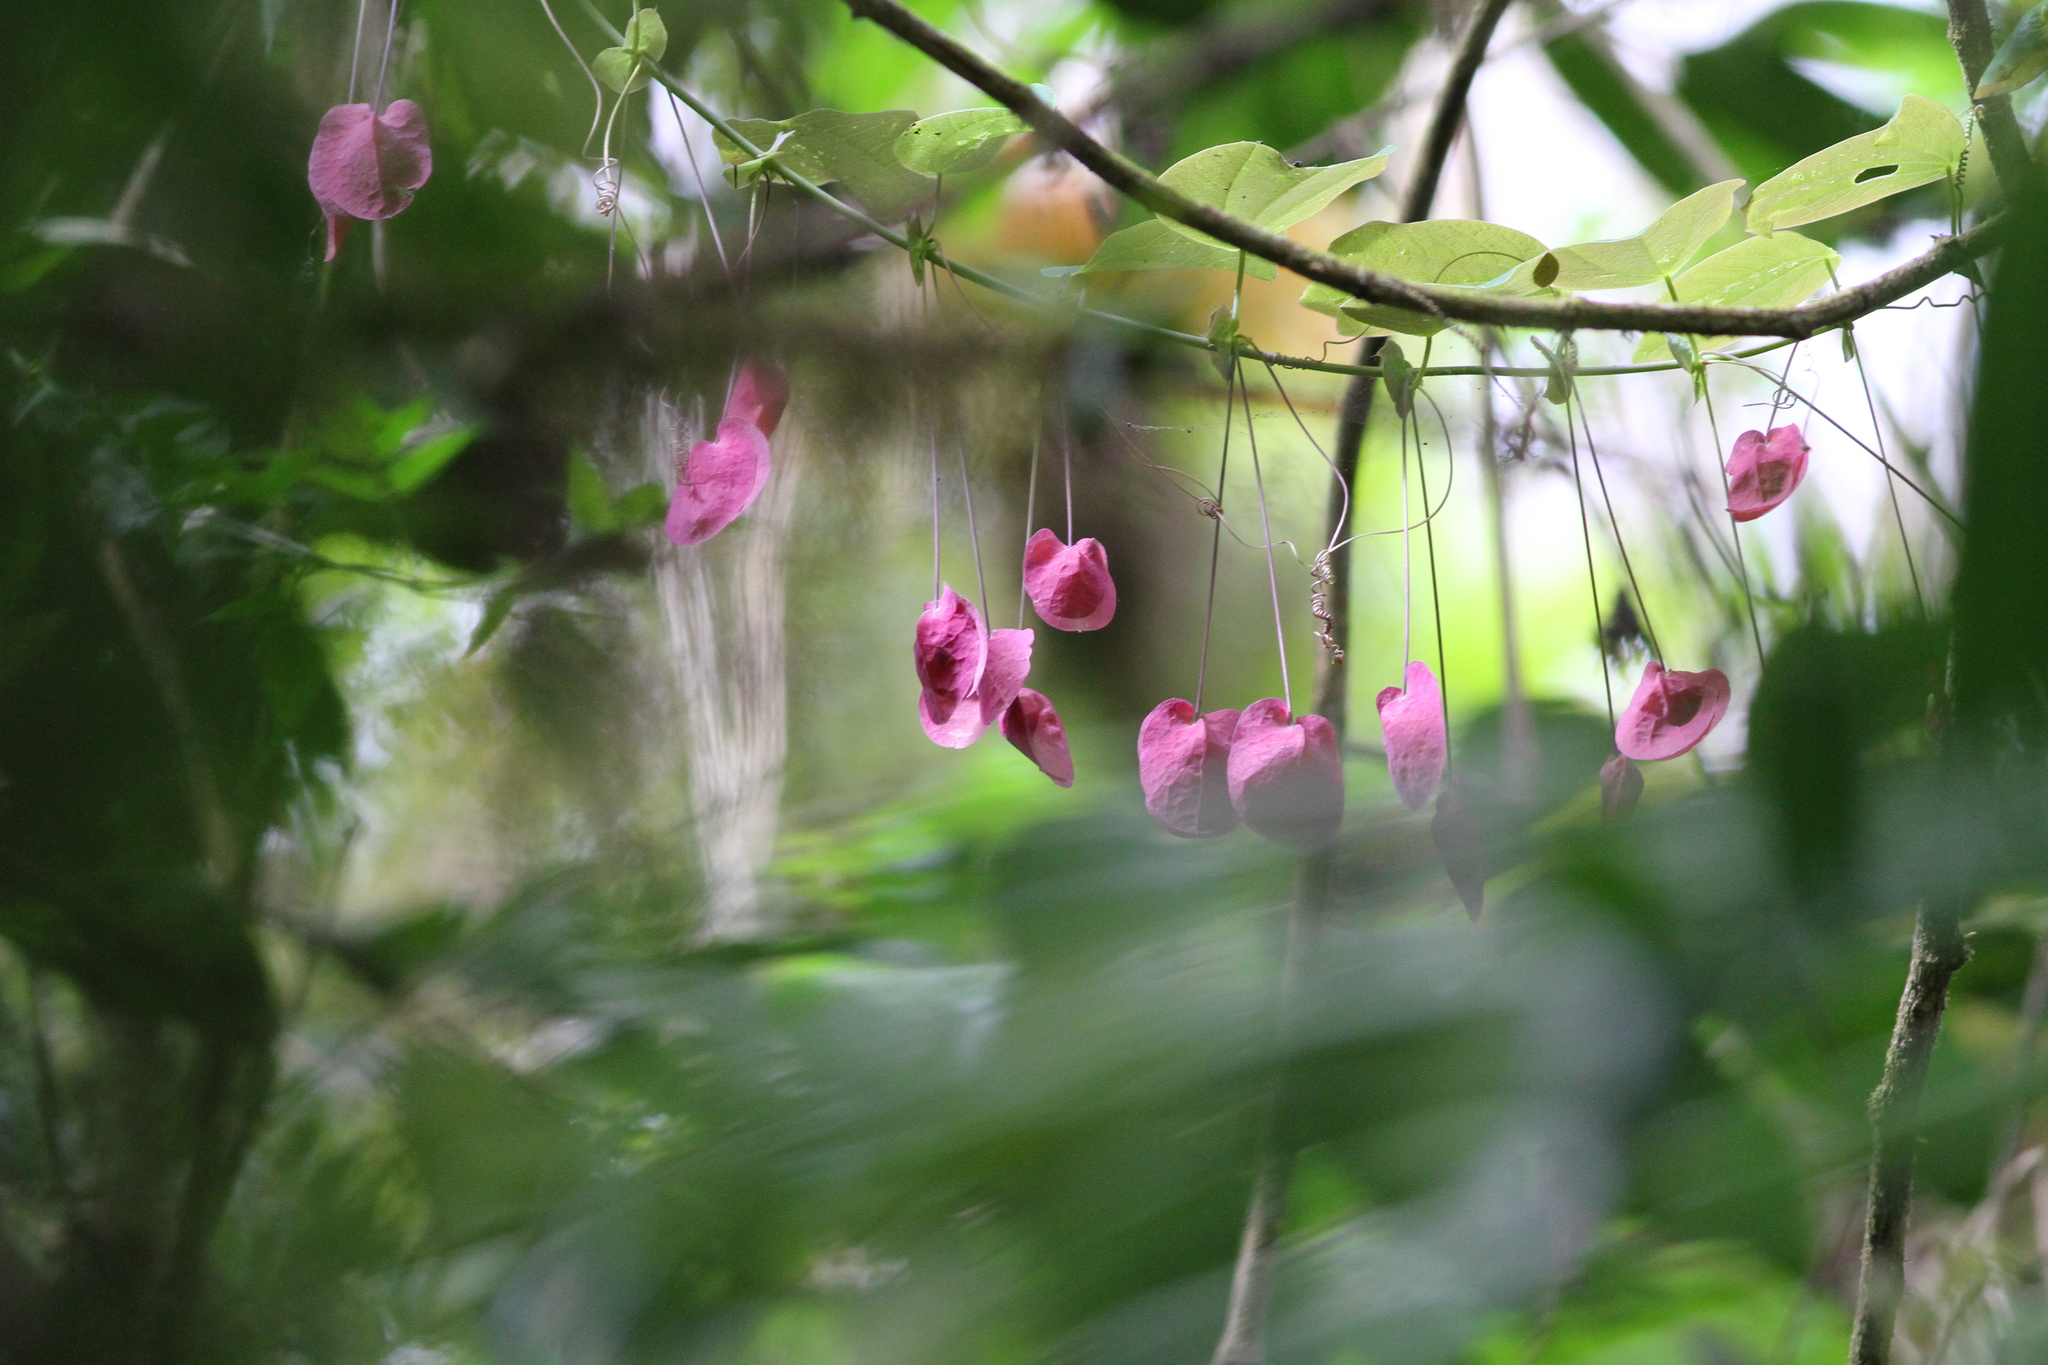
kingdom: Plantae
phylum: Tracheophyta
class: Magnoliopsida
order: Malpighiales
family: Passifloraceae
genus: Passiflora
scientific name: Passiflora membranacea
